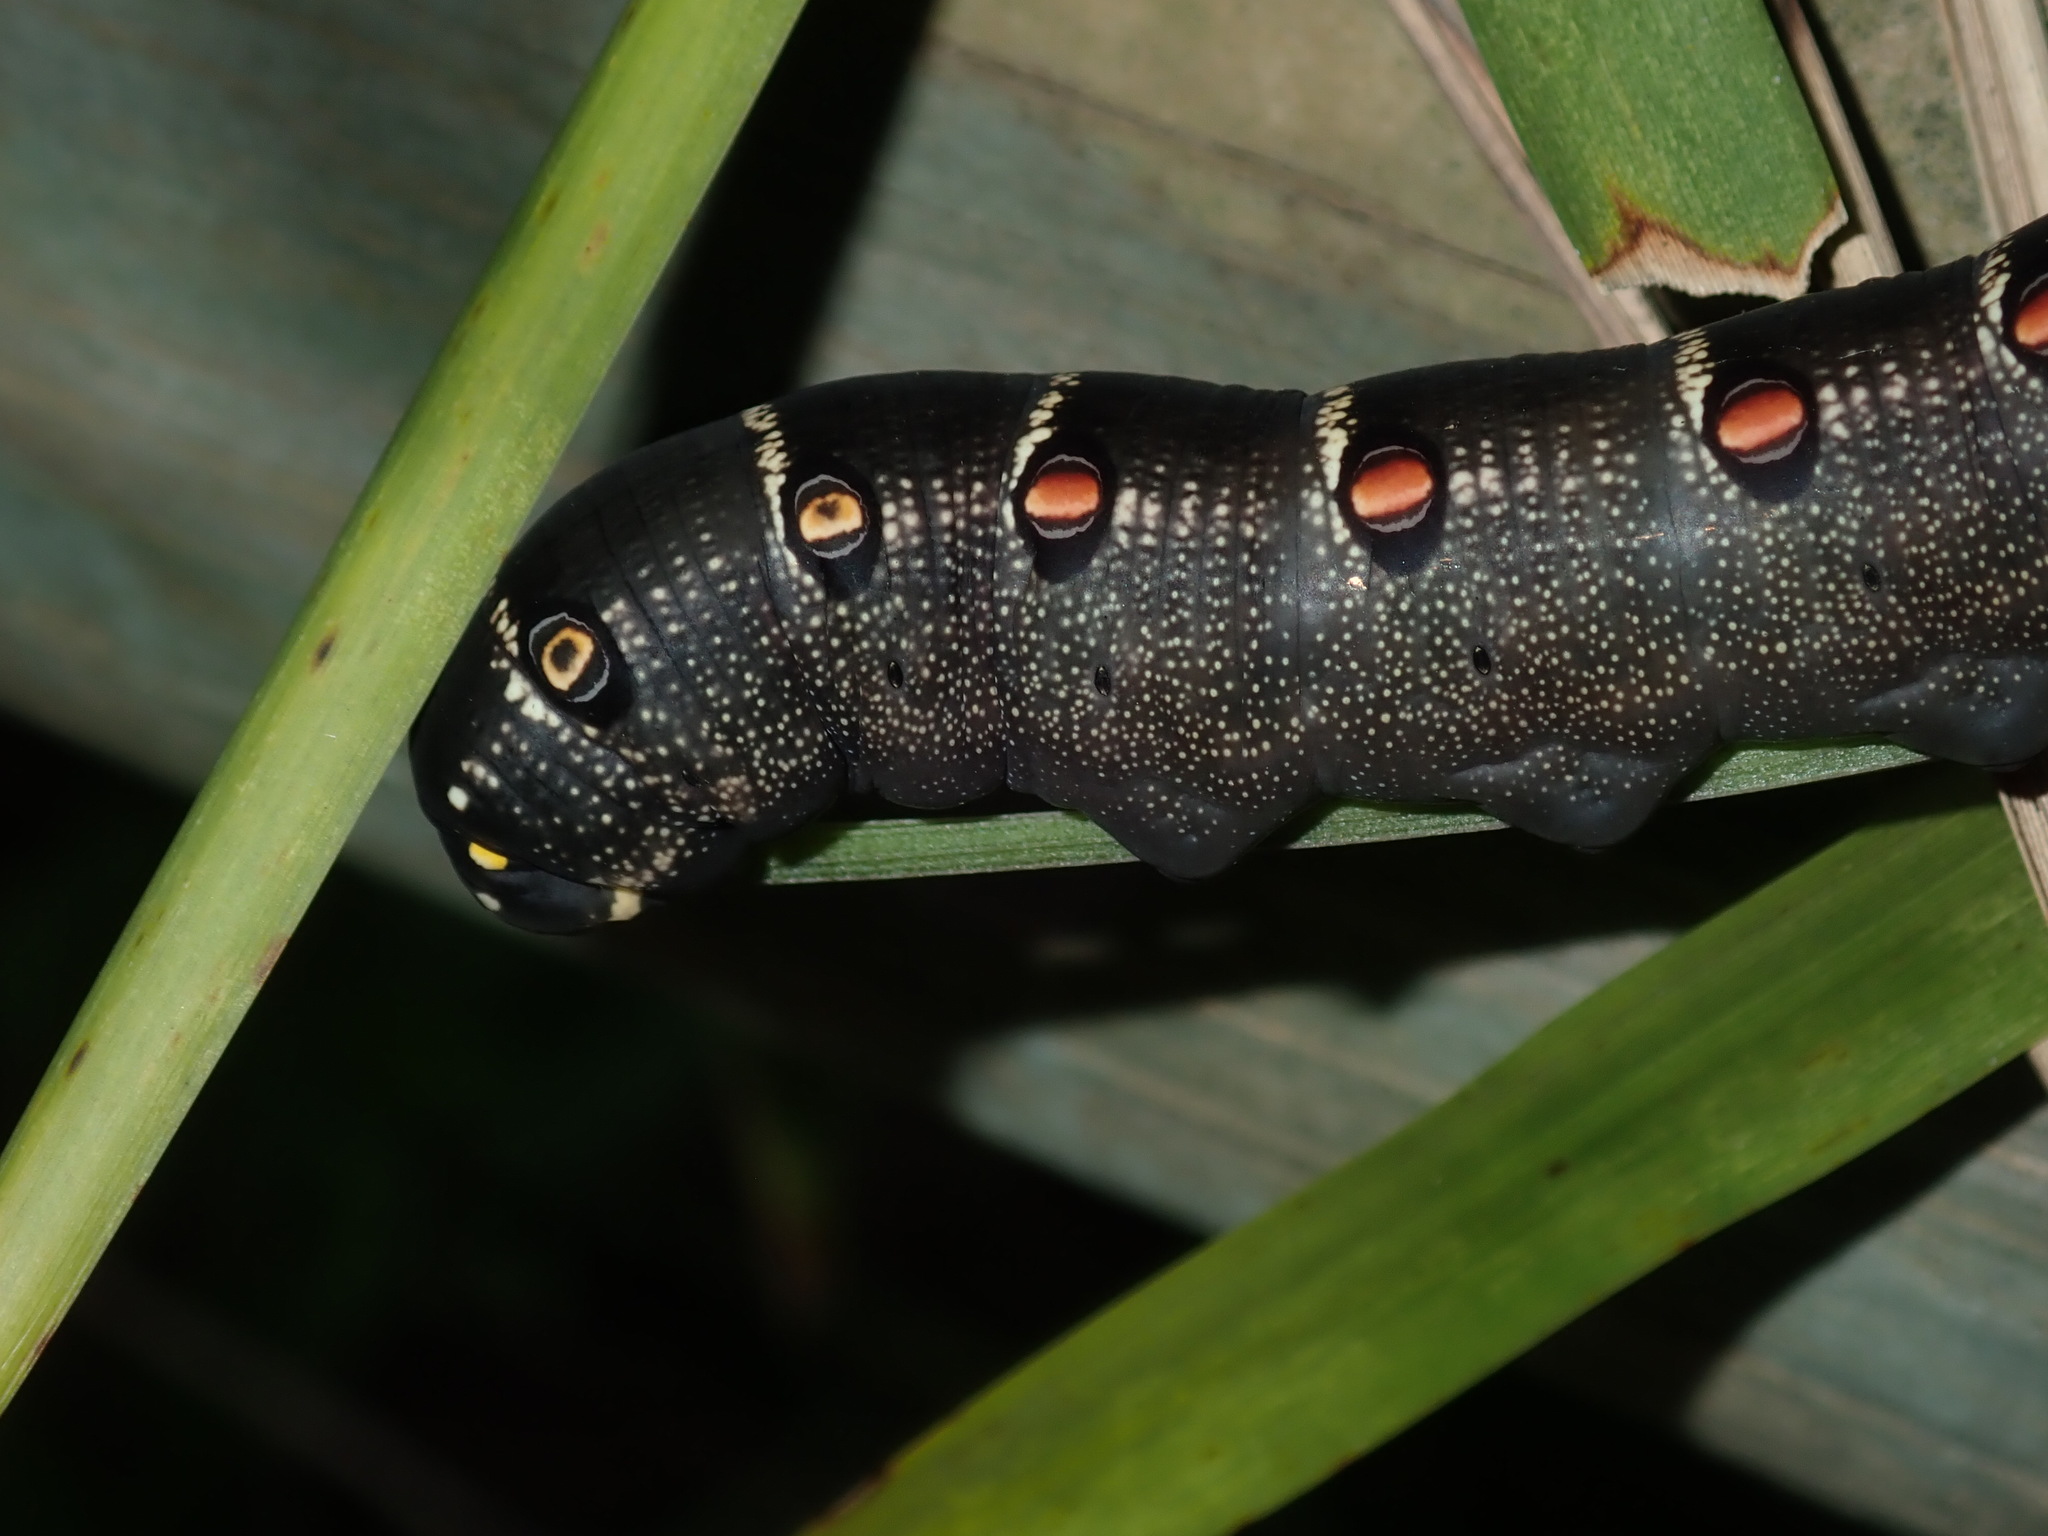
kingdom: Animalia
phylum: Arthropoda
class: Insecta
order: Lepidoptera
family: Sphingidae
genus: Theretra
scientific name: Theretra oldenlandiae
